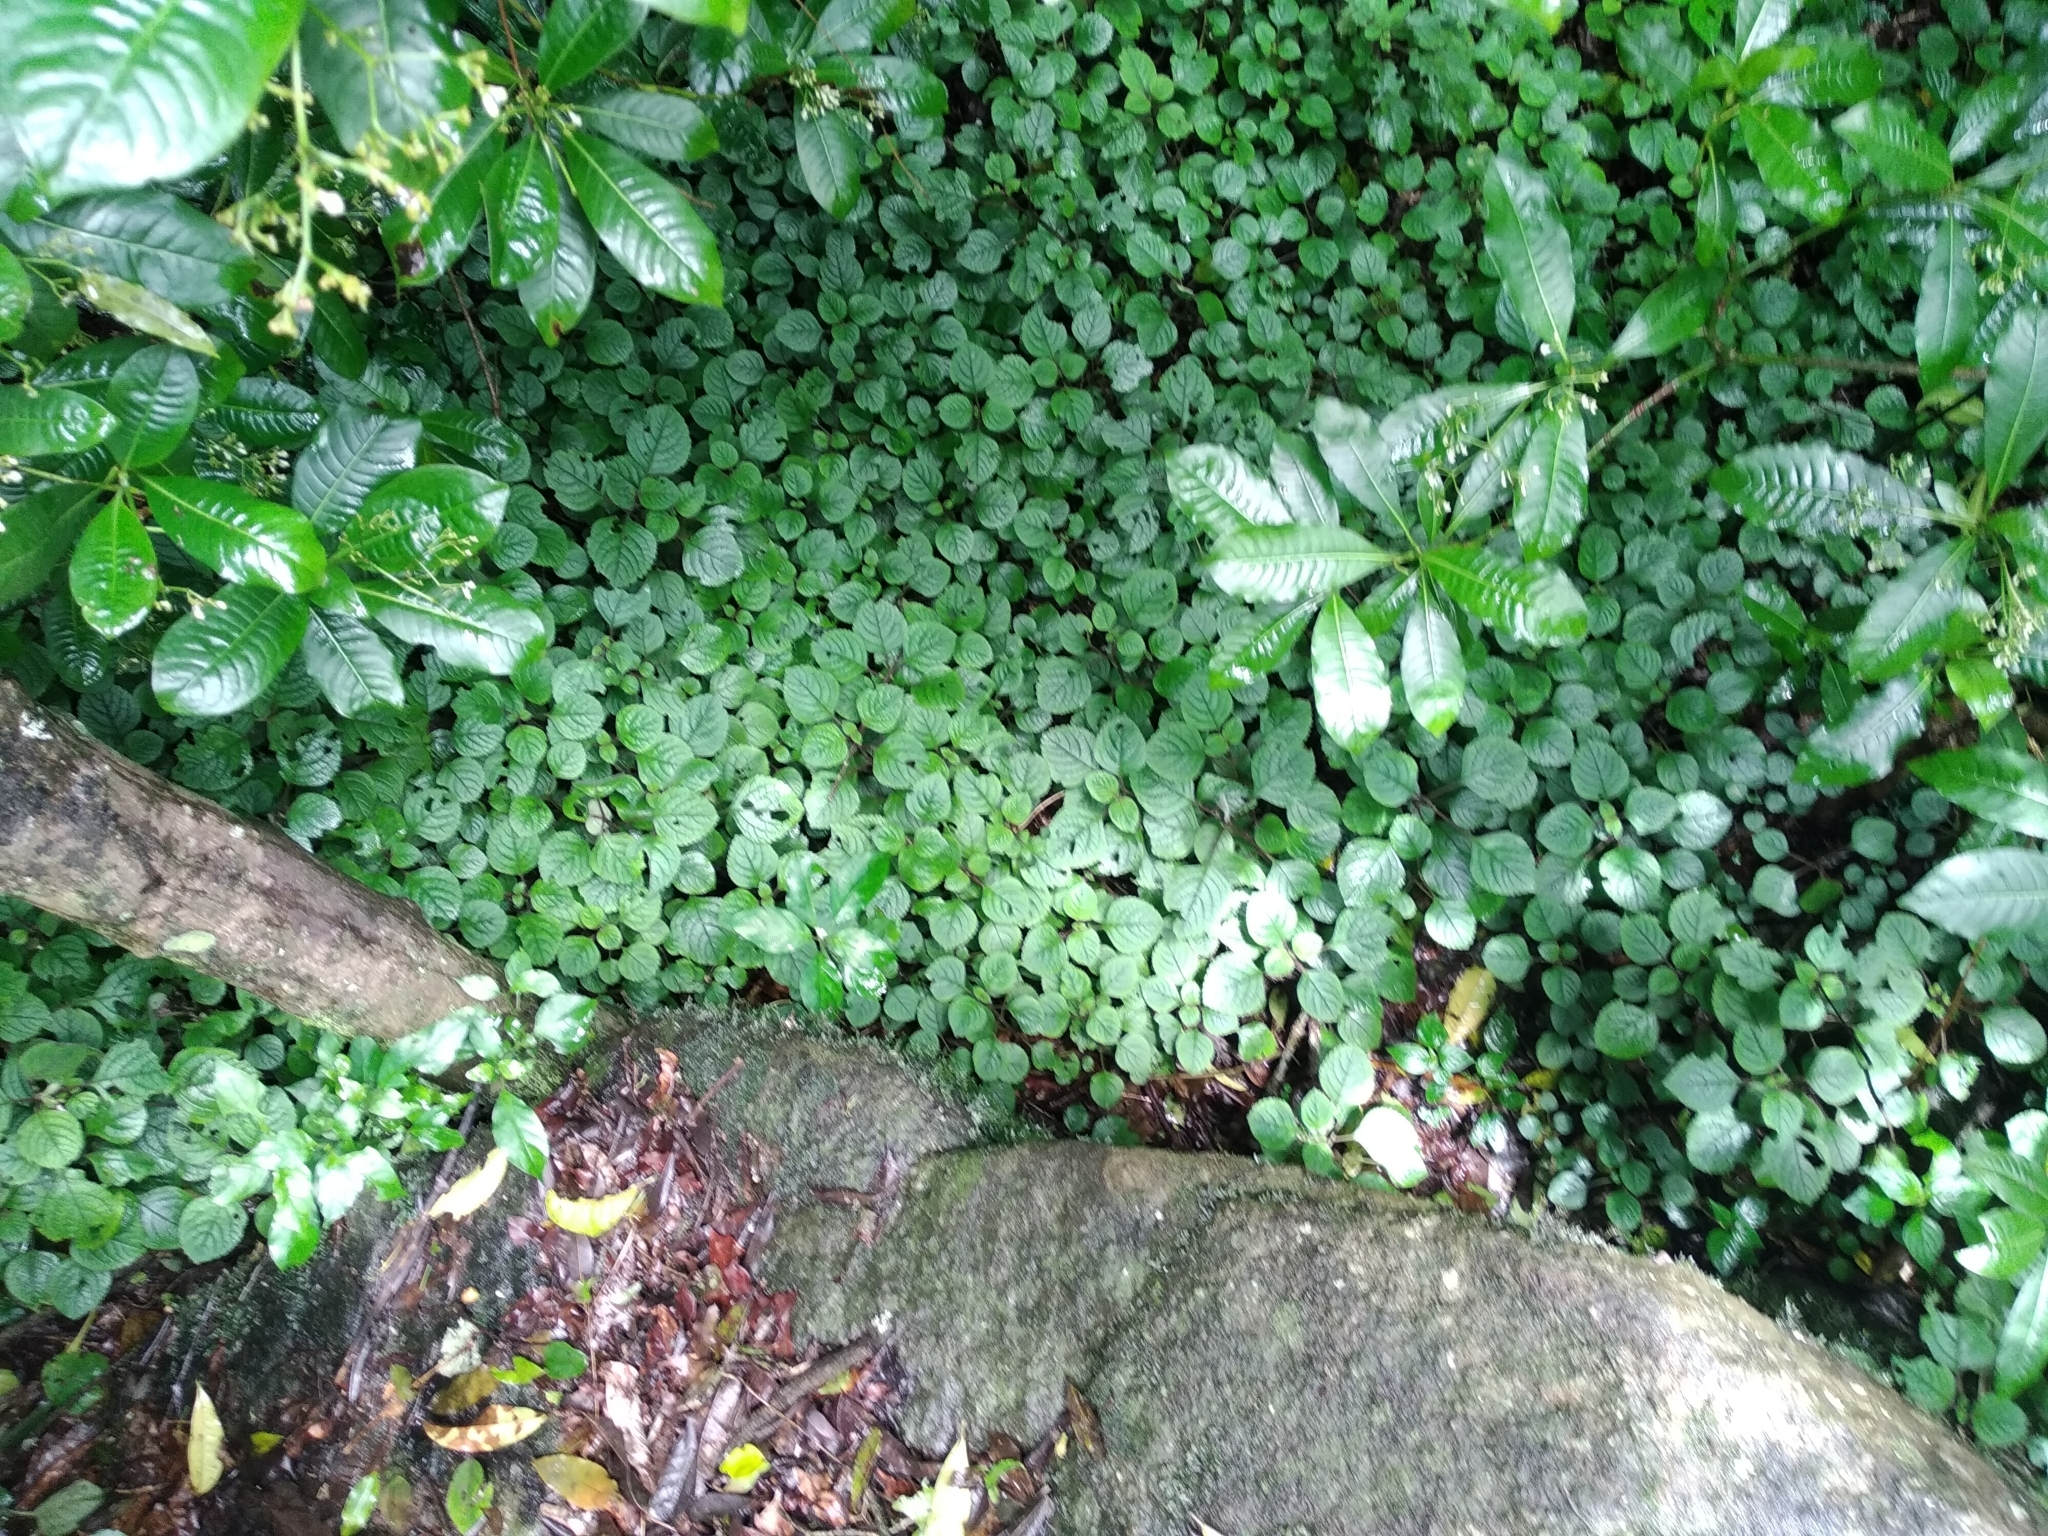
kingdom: Plantae
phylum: Tracheophyta
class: Magnoliopsida
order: Lamiales
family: Lamiaceae
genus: Plectranthus
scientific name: Plectranthus ciliatus
